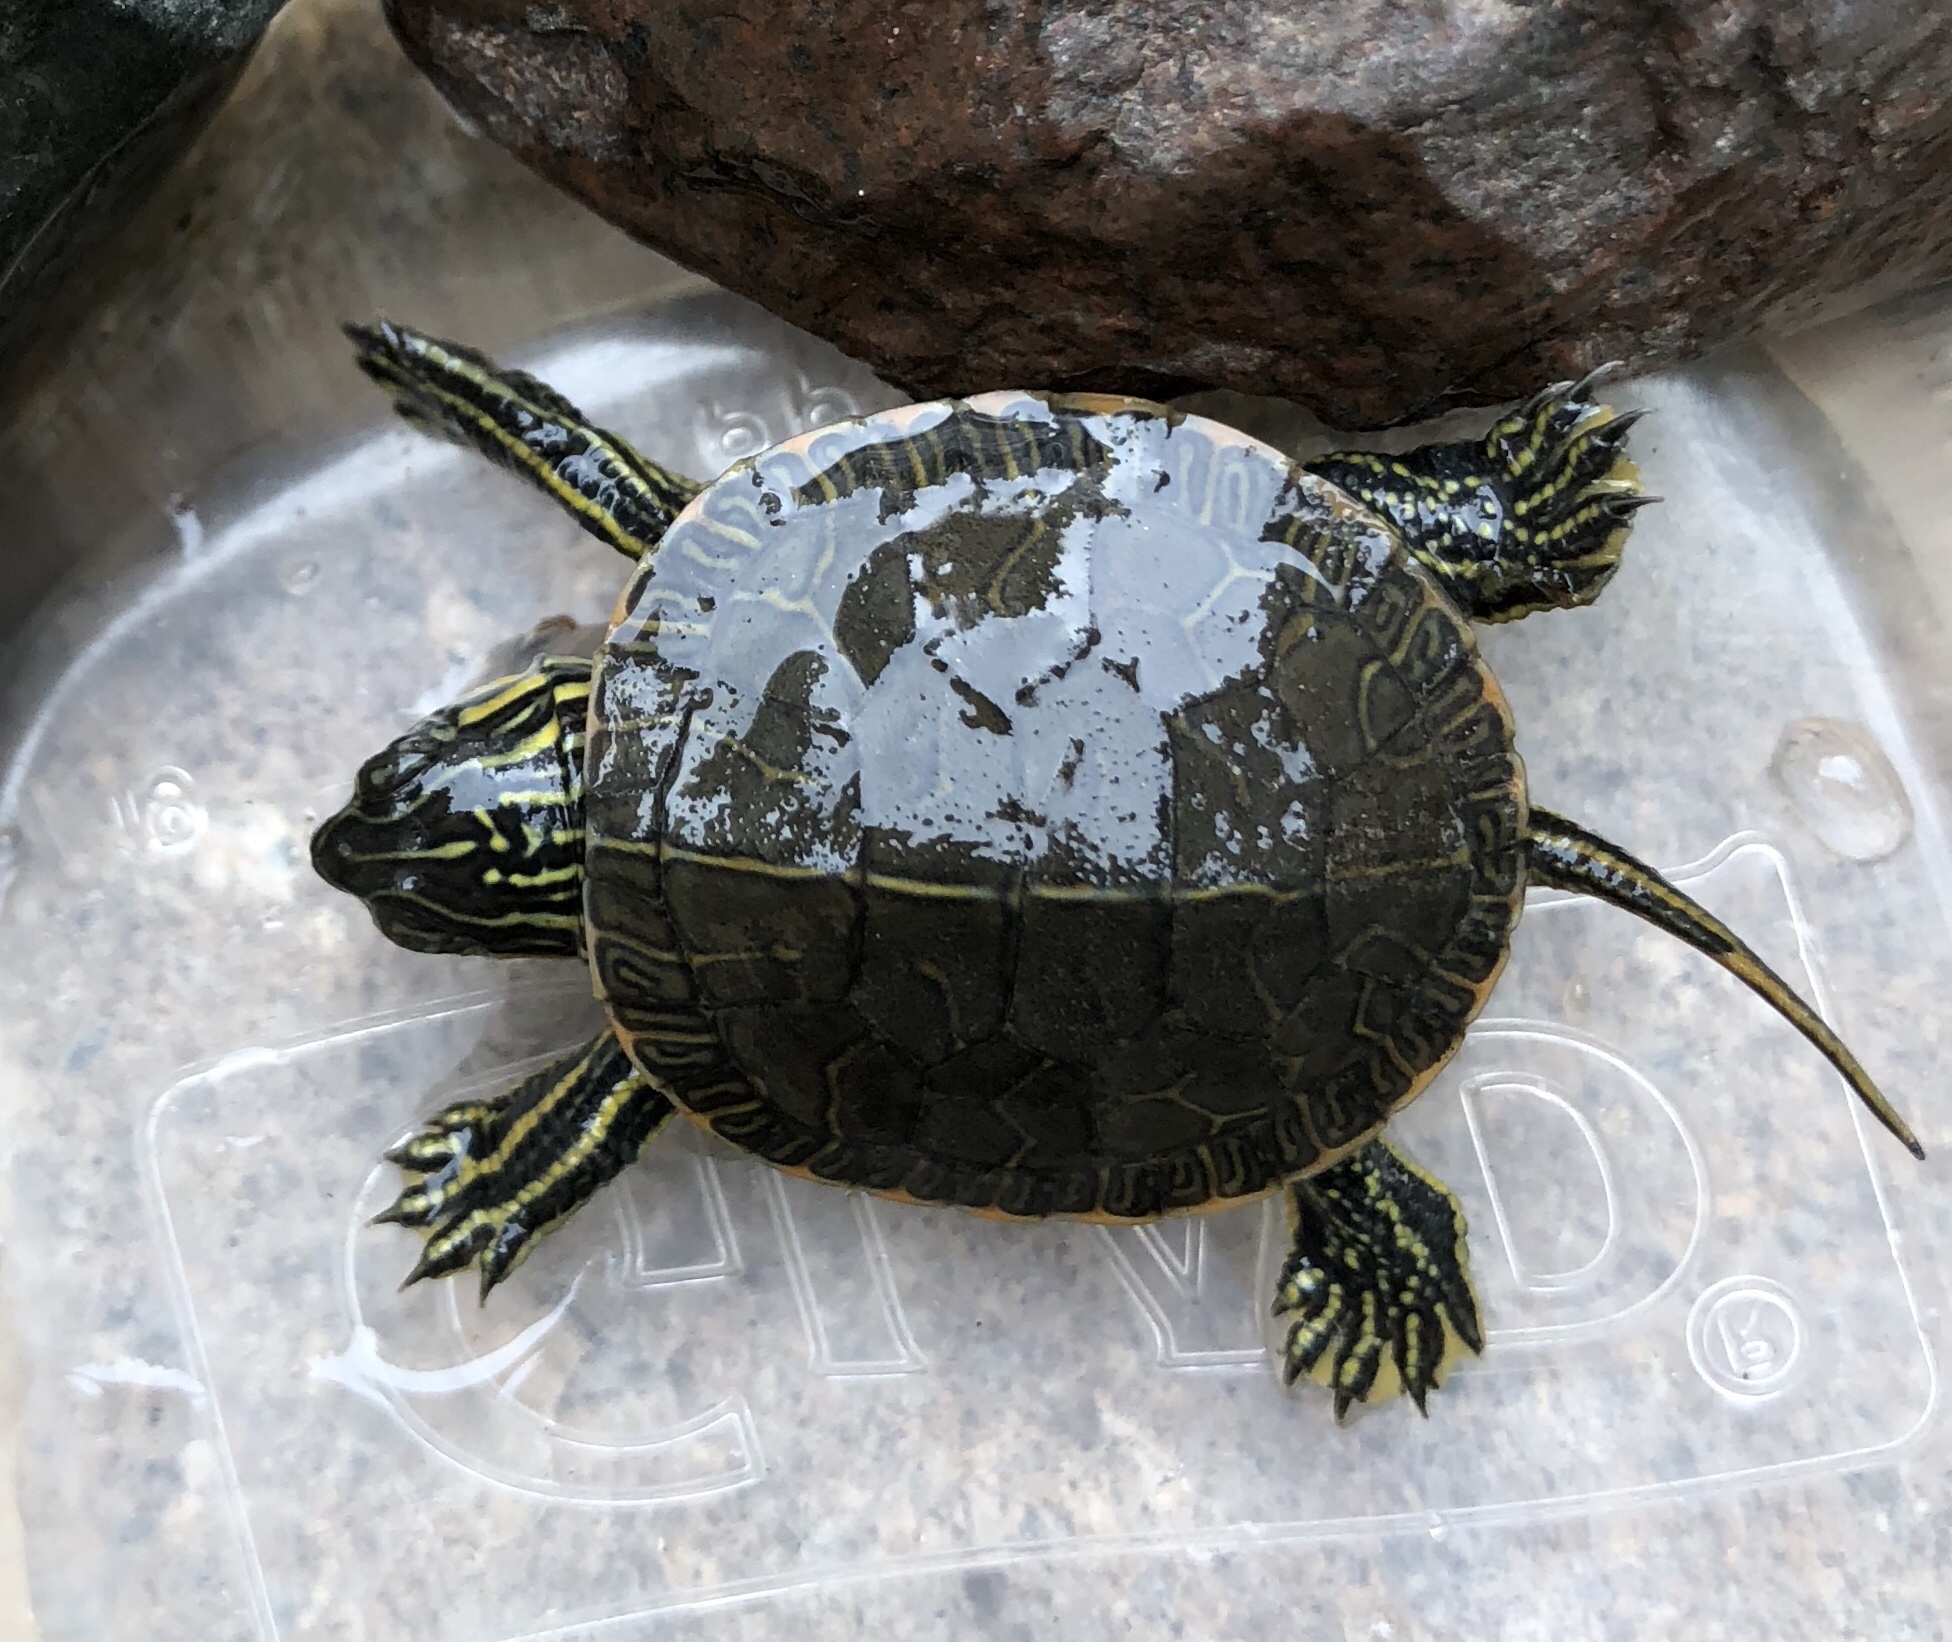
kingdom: Animalia
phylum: Chordata
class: Testudines
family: Emydidae
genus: Chrysemys
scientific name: Chrysemys picta
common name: Painted turtle
